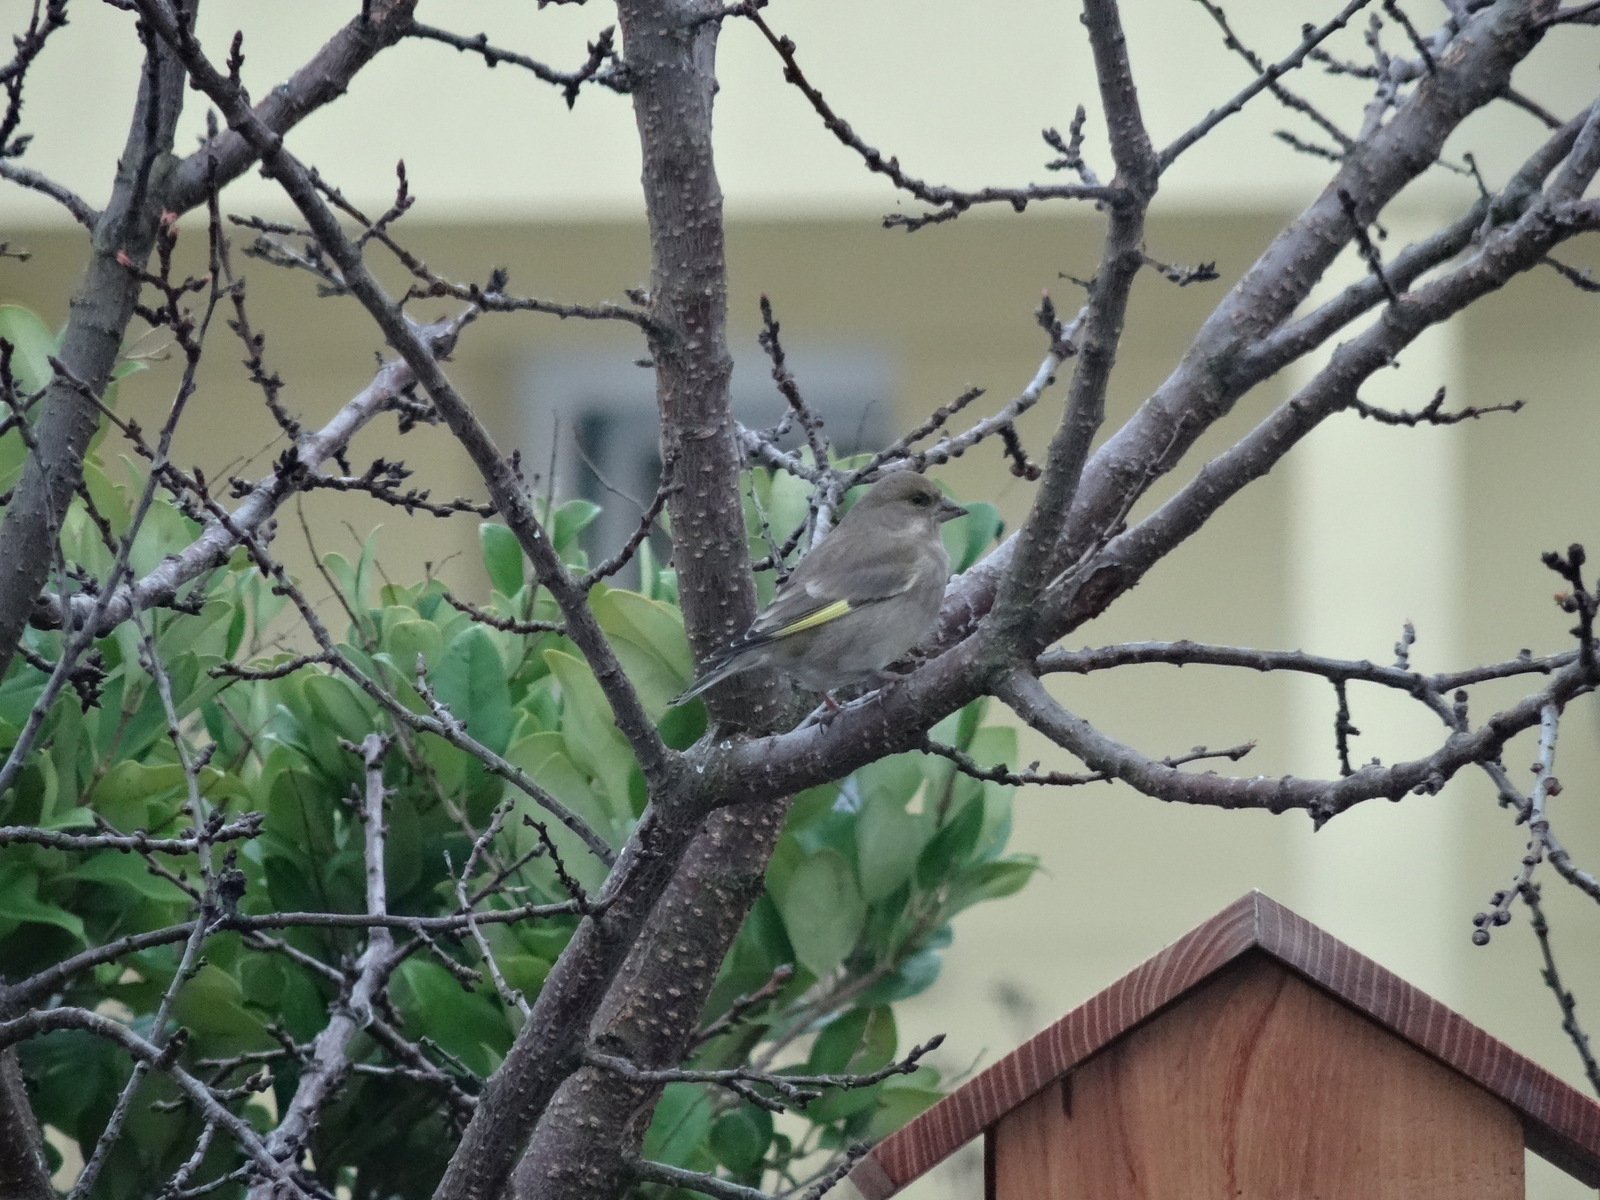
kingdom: Plantae
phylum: Tracheophyta
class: Liliopsida
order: Poales
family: Poaceae
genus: Chloris
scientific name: Chloris chloris
